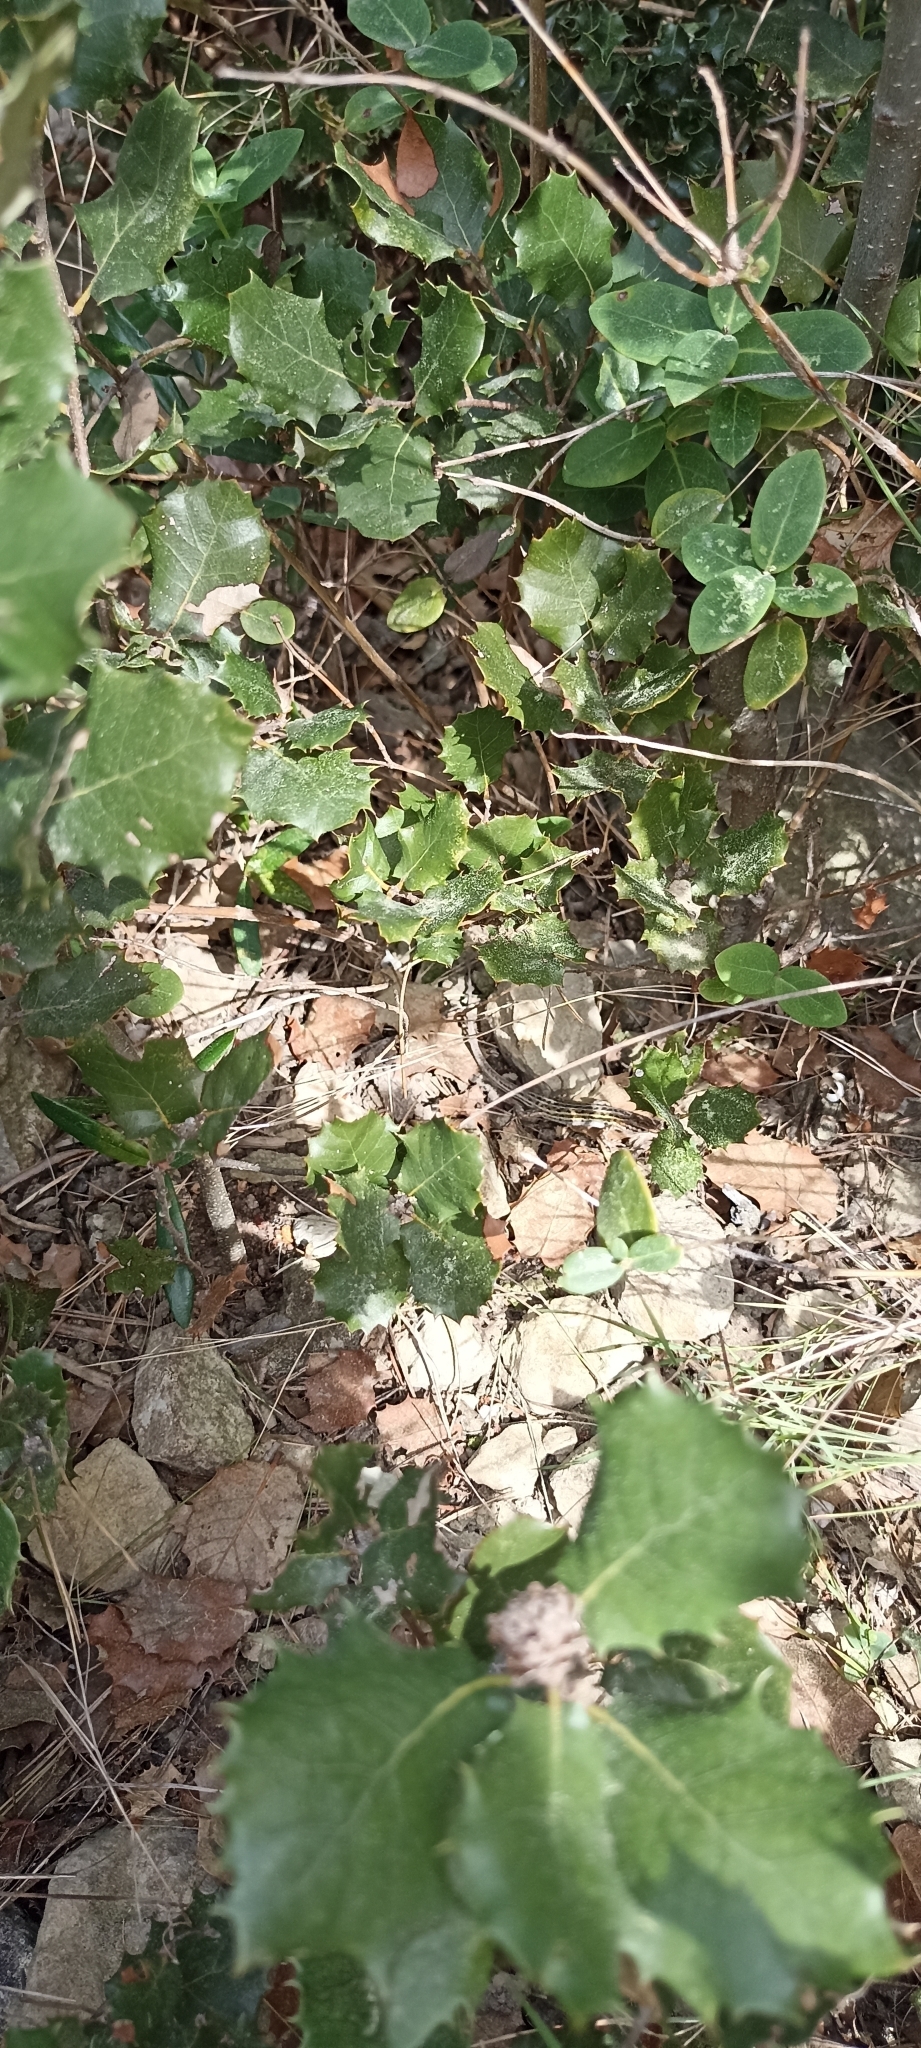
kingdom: Animalia
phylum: Chordata
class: Squamata
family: Lacertidae
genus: Psammodromus
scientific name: Psammodromus edwarsianus
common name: East iberian psammodromus
